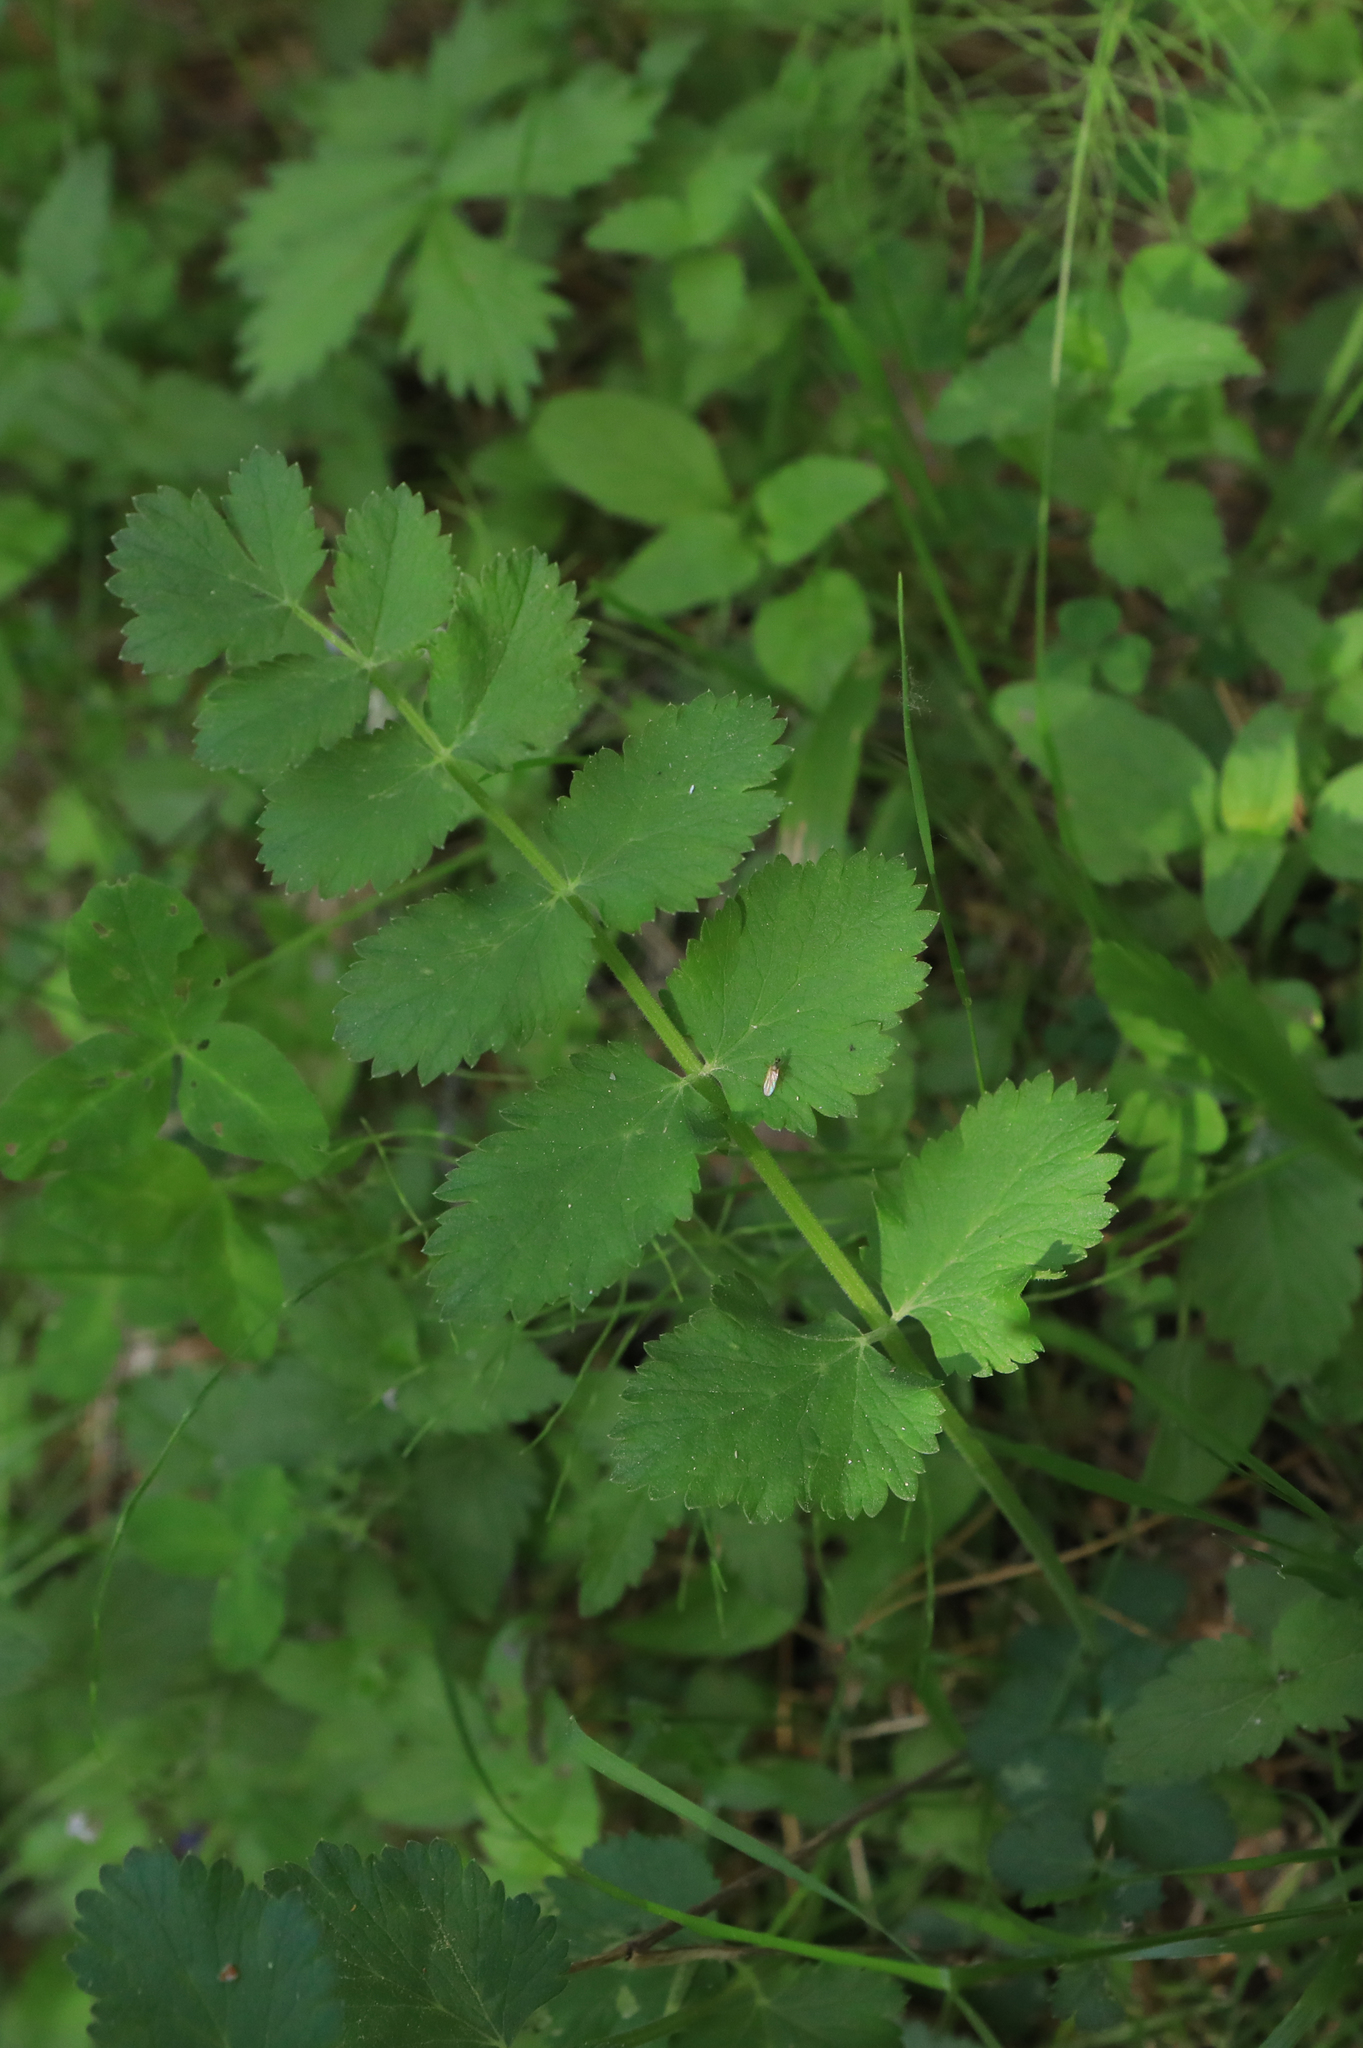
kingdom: Plantae
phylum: Tracheophyta
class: Magnoliopsida
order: Apiales
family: Apiaceae
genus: Pimpinella
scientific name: Pimpinella saxifraga
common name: Burnet-saxifrage
